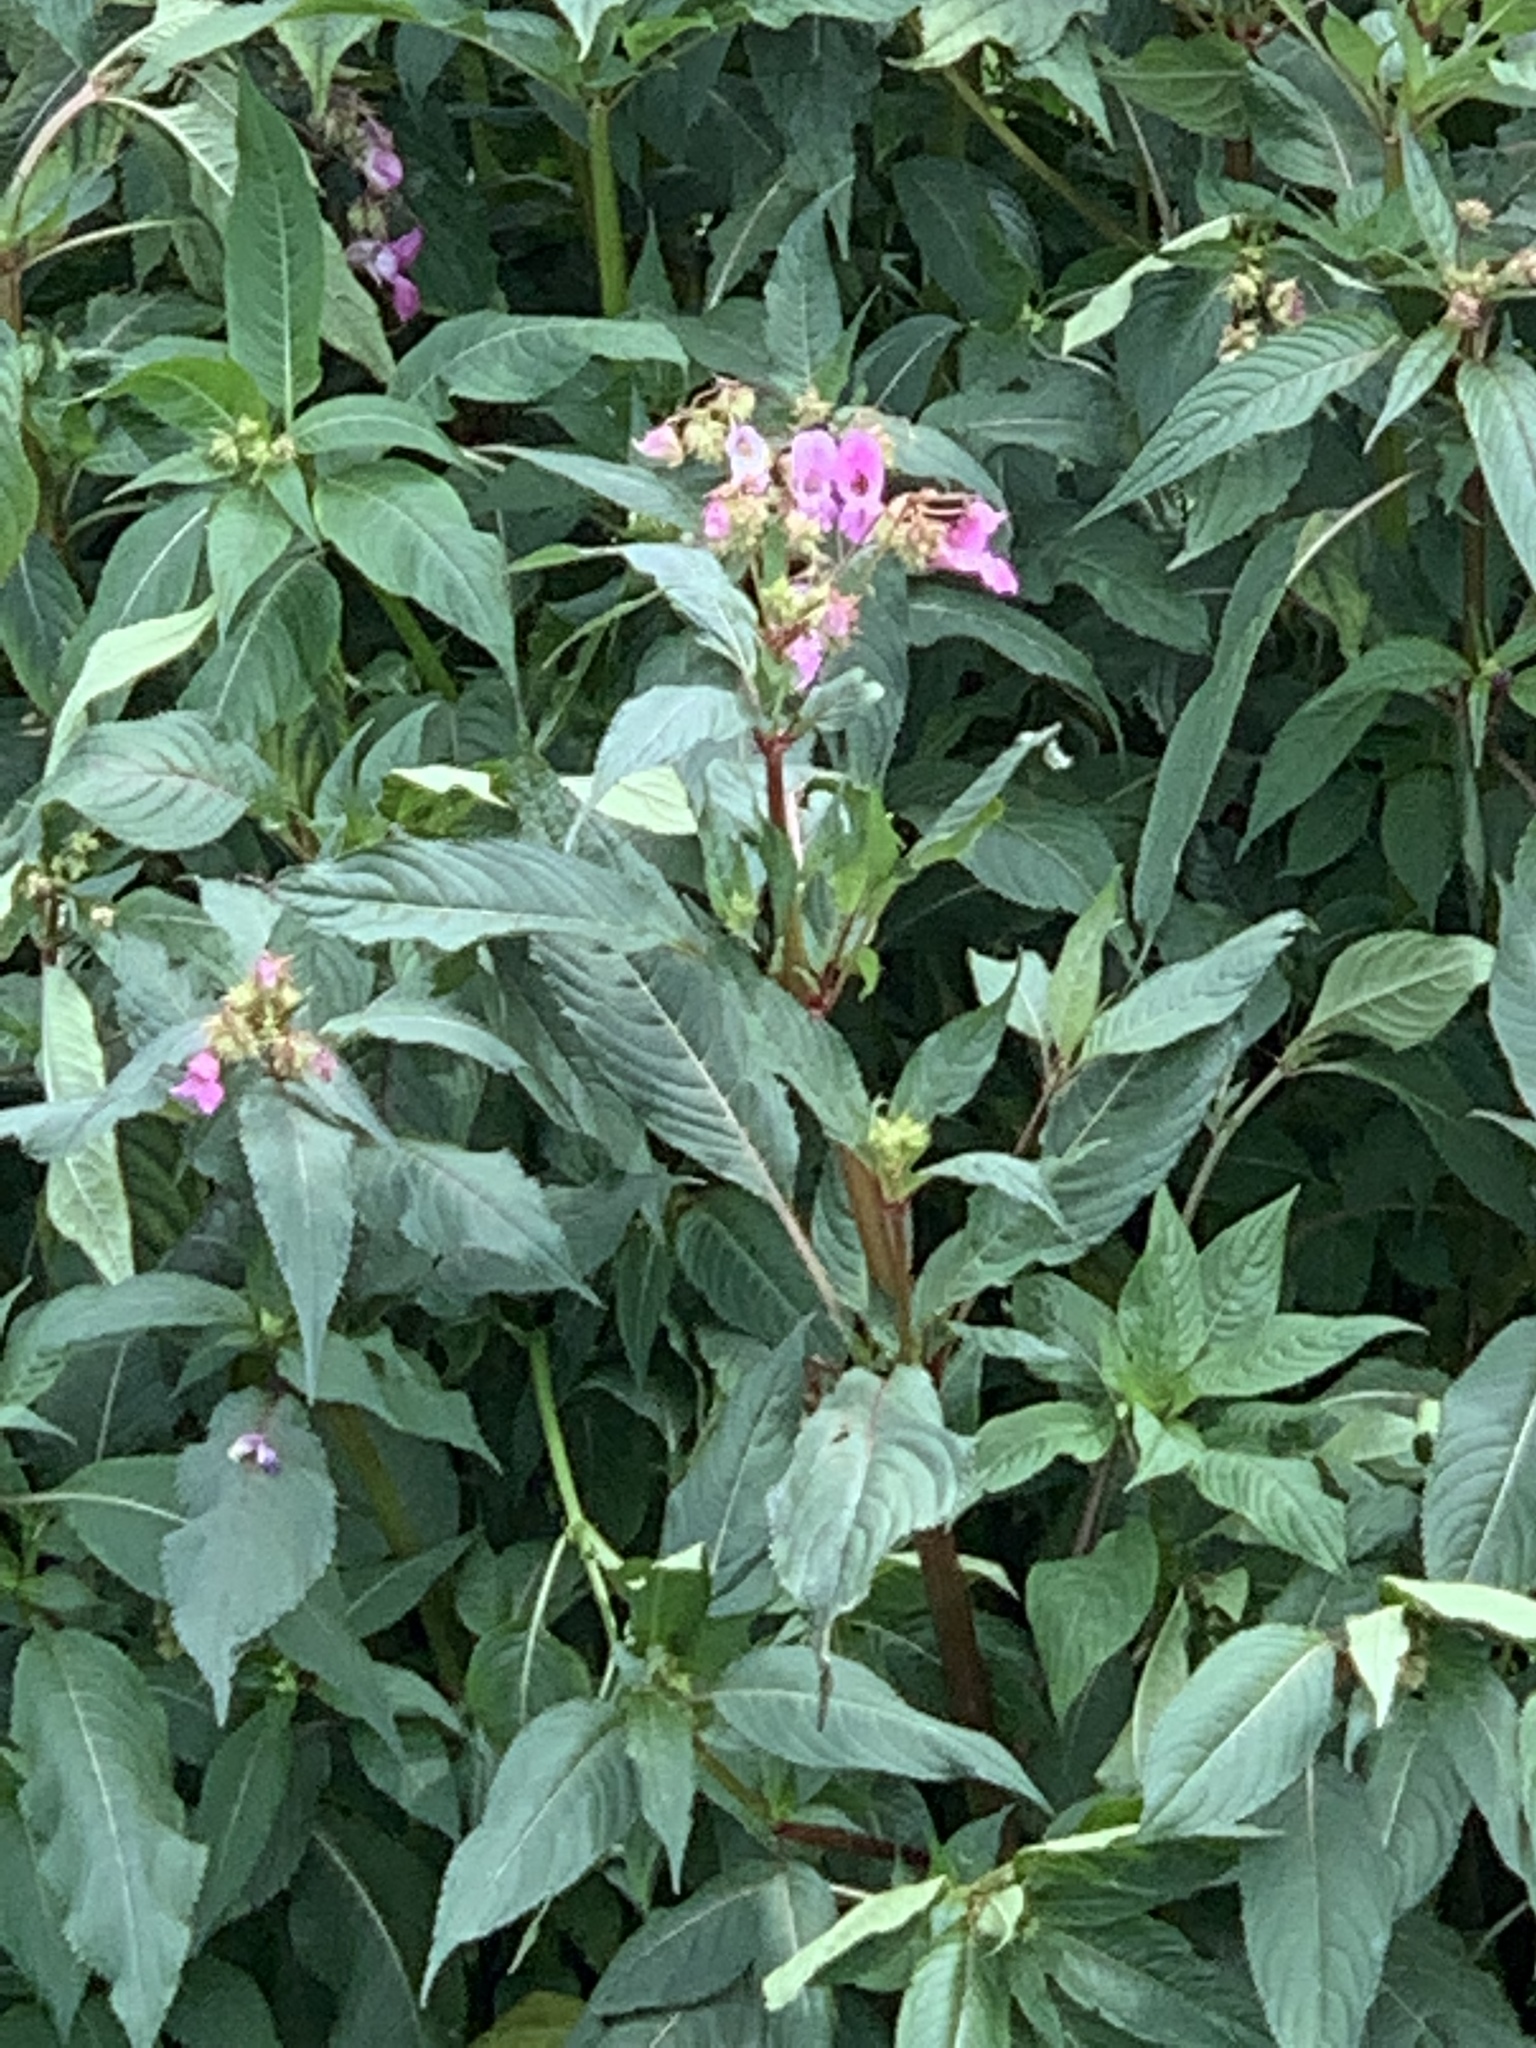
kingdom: Plantae
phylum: Tracheophyta
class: Magnoliopsida
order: Ericales
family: Balsaminaceae
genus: Impatiens
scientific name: Impatiens glandulifera
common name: Himalayan balsam
